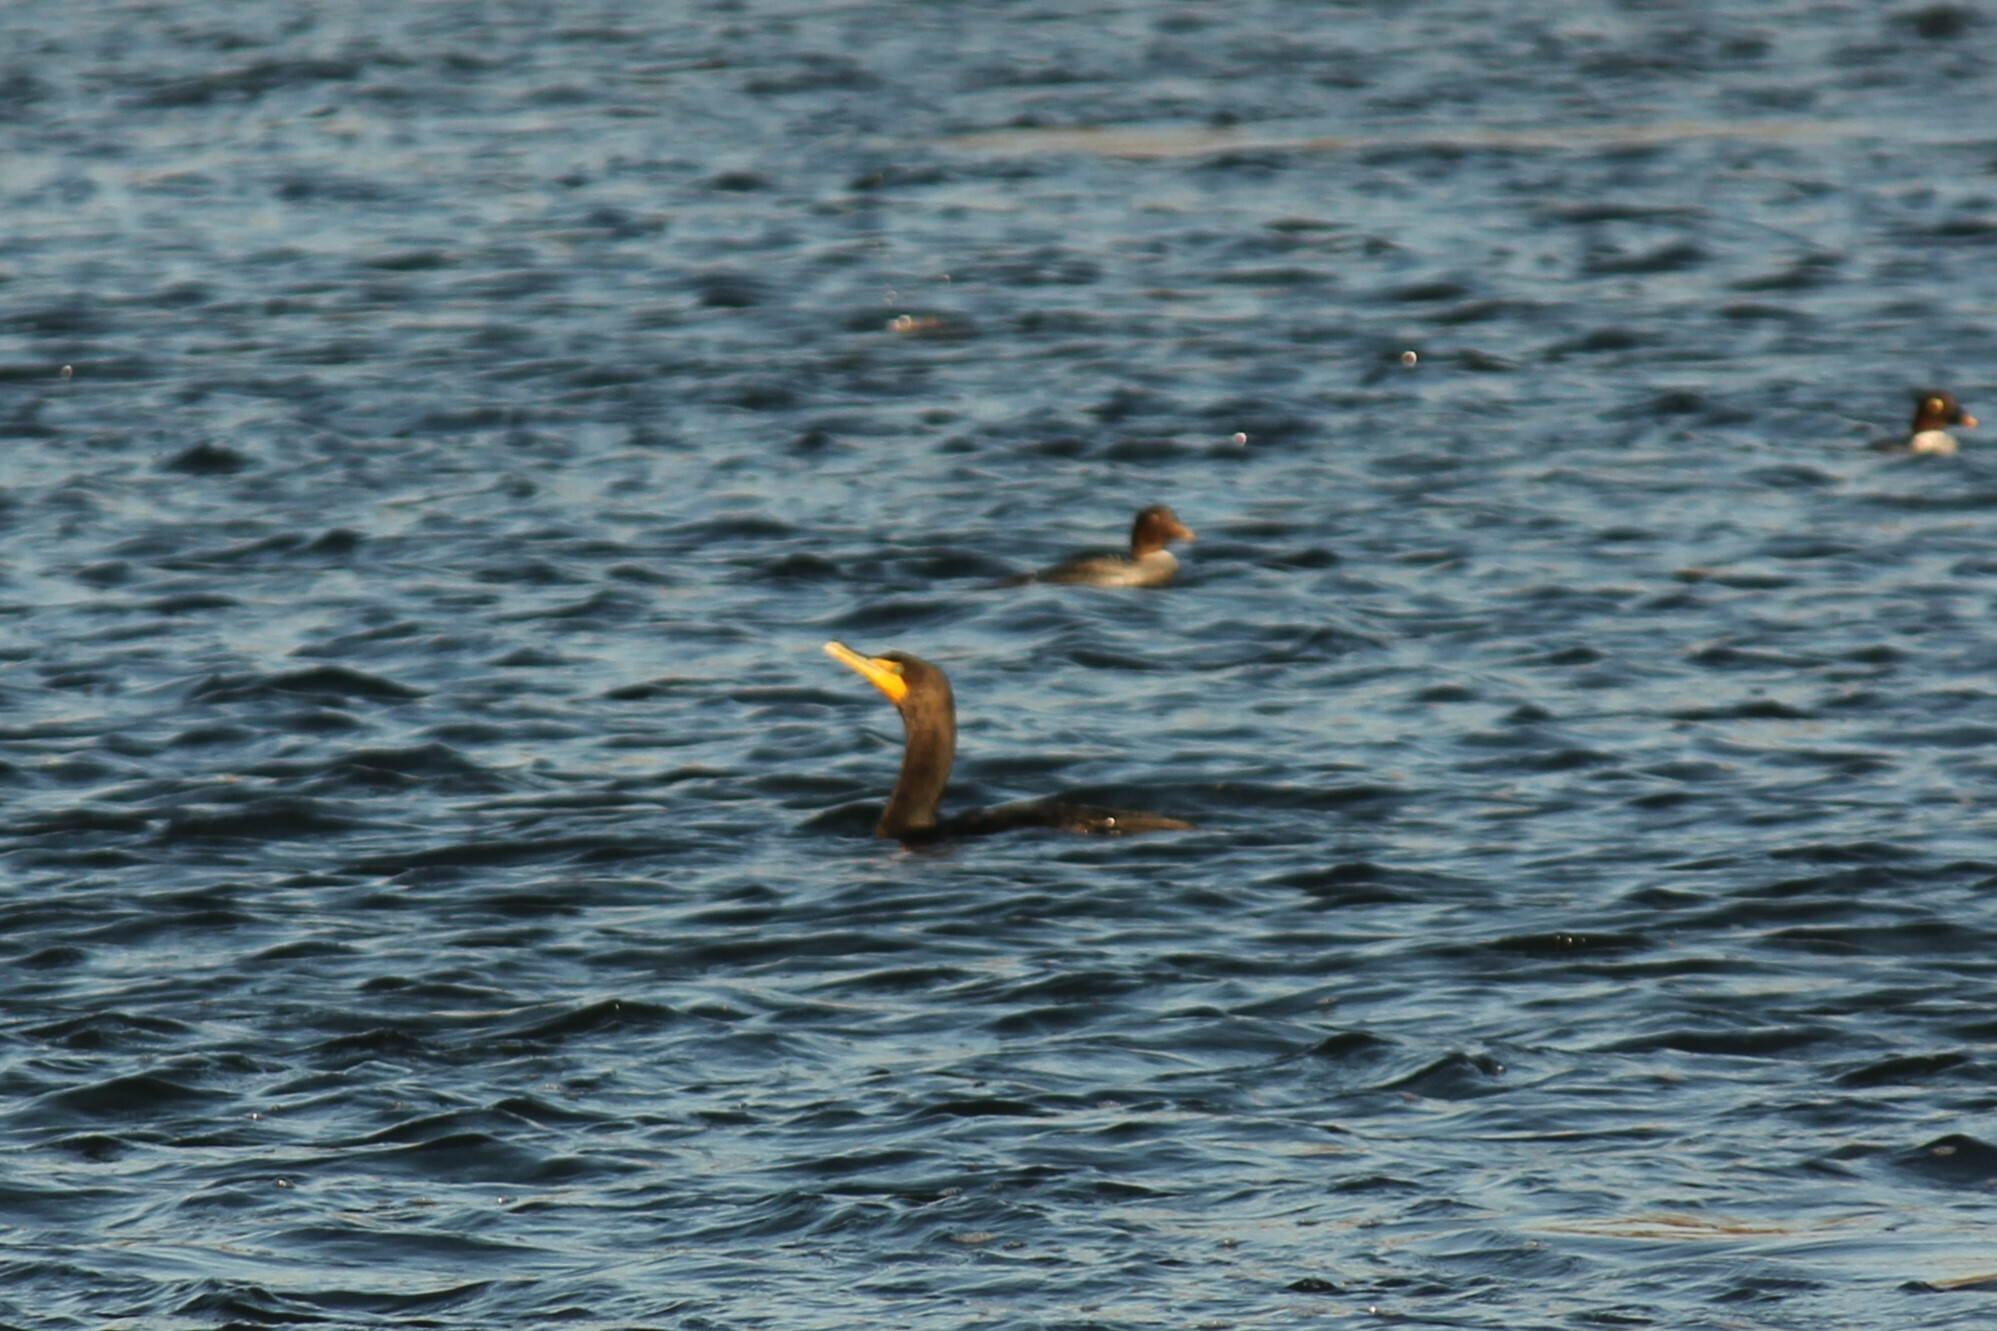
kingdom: Animalia
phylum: Chordata
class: Aves
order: Suliformes
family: Phalacrocoracidae
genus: Phalacrocorax
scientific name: Phalacrocorax auritus
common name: Double-crested cormorant
